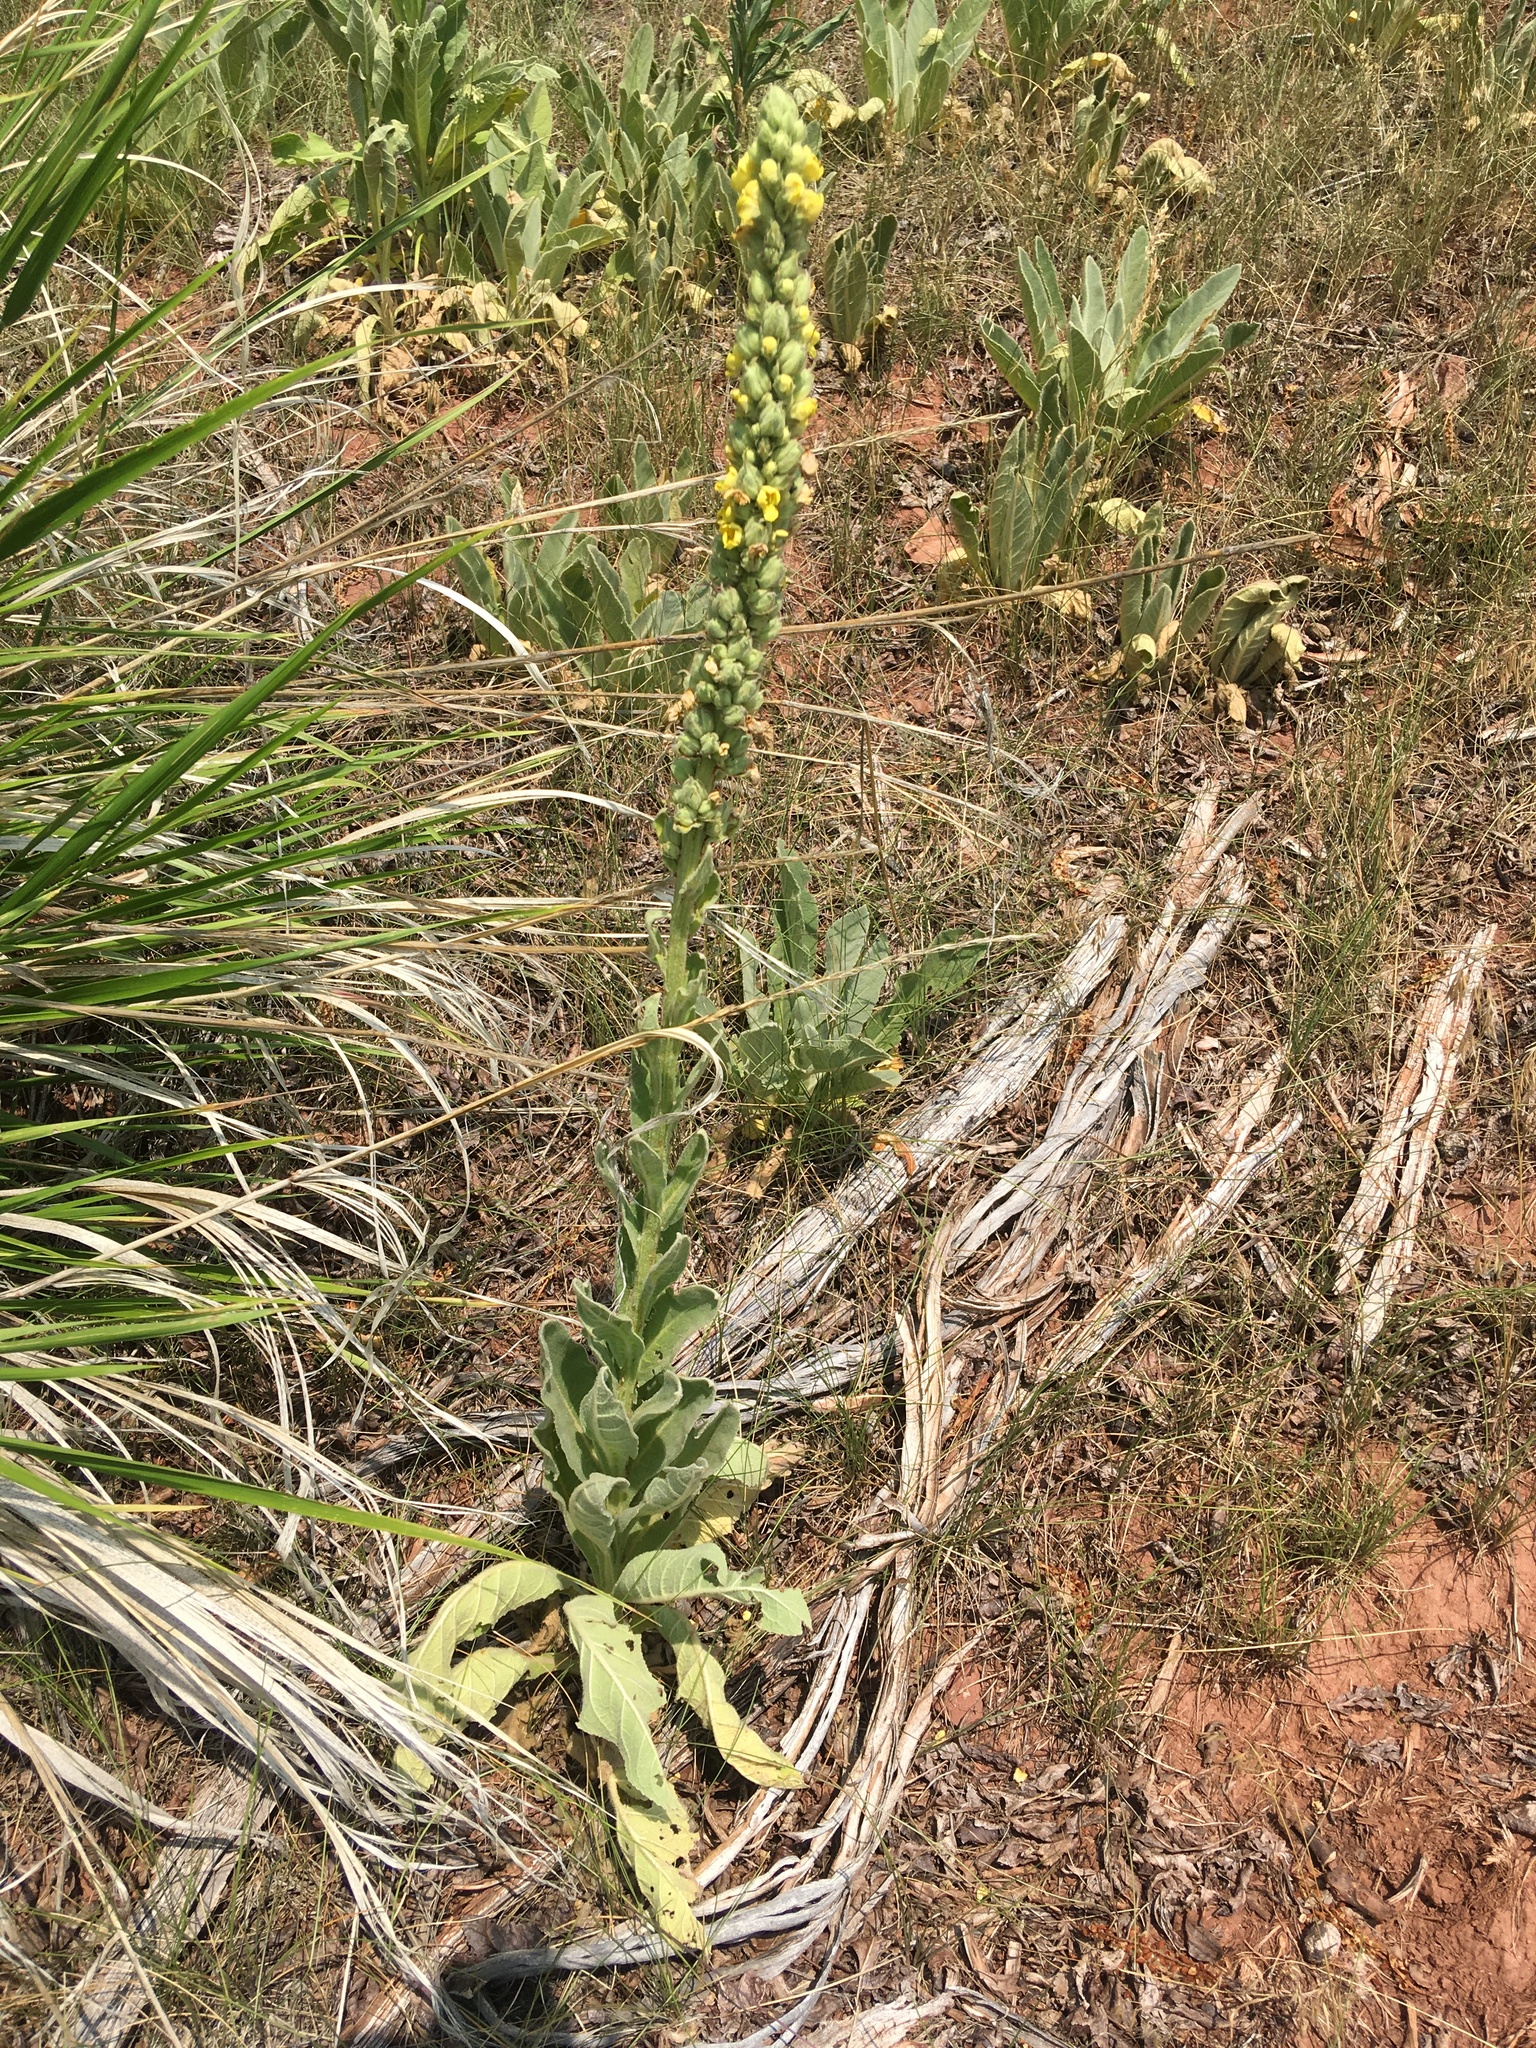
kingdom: Plantae
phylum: Tracheophyta
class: Magnoliopsida
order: Lamiales
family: Scrophulariaceae
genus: Verbascum
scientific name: Verbascum thapsus
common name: Common mullein
